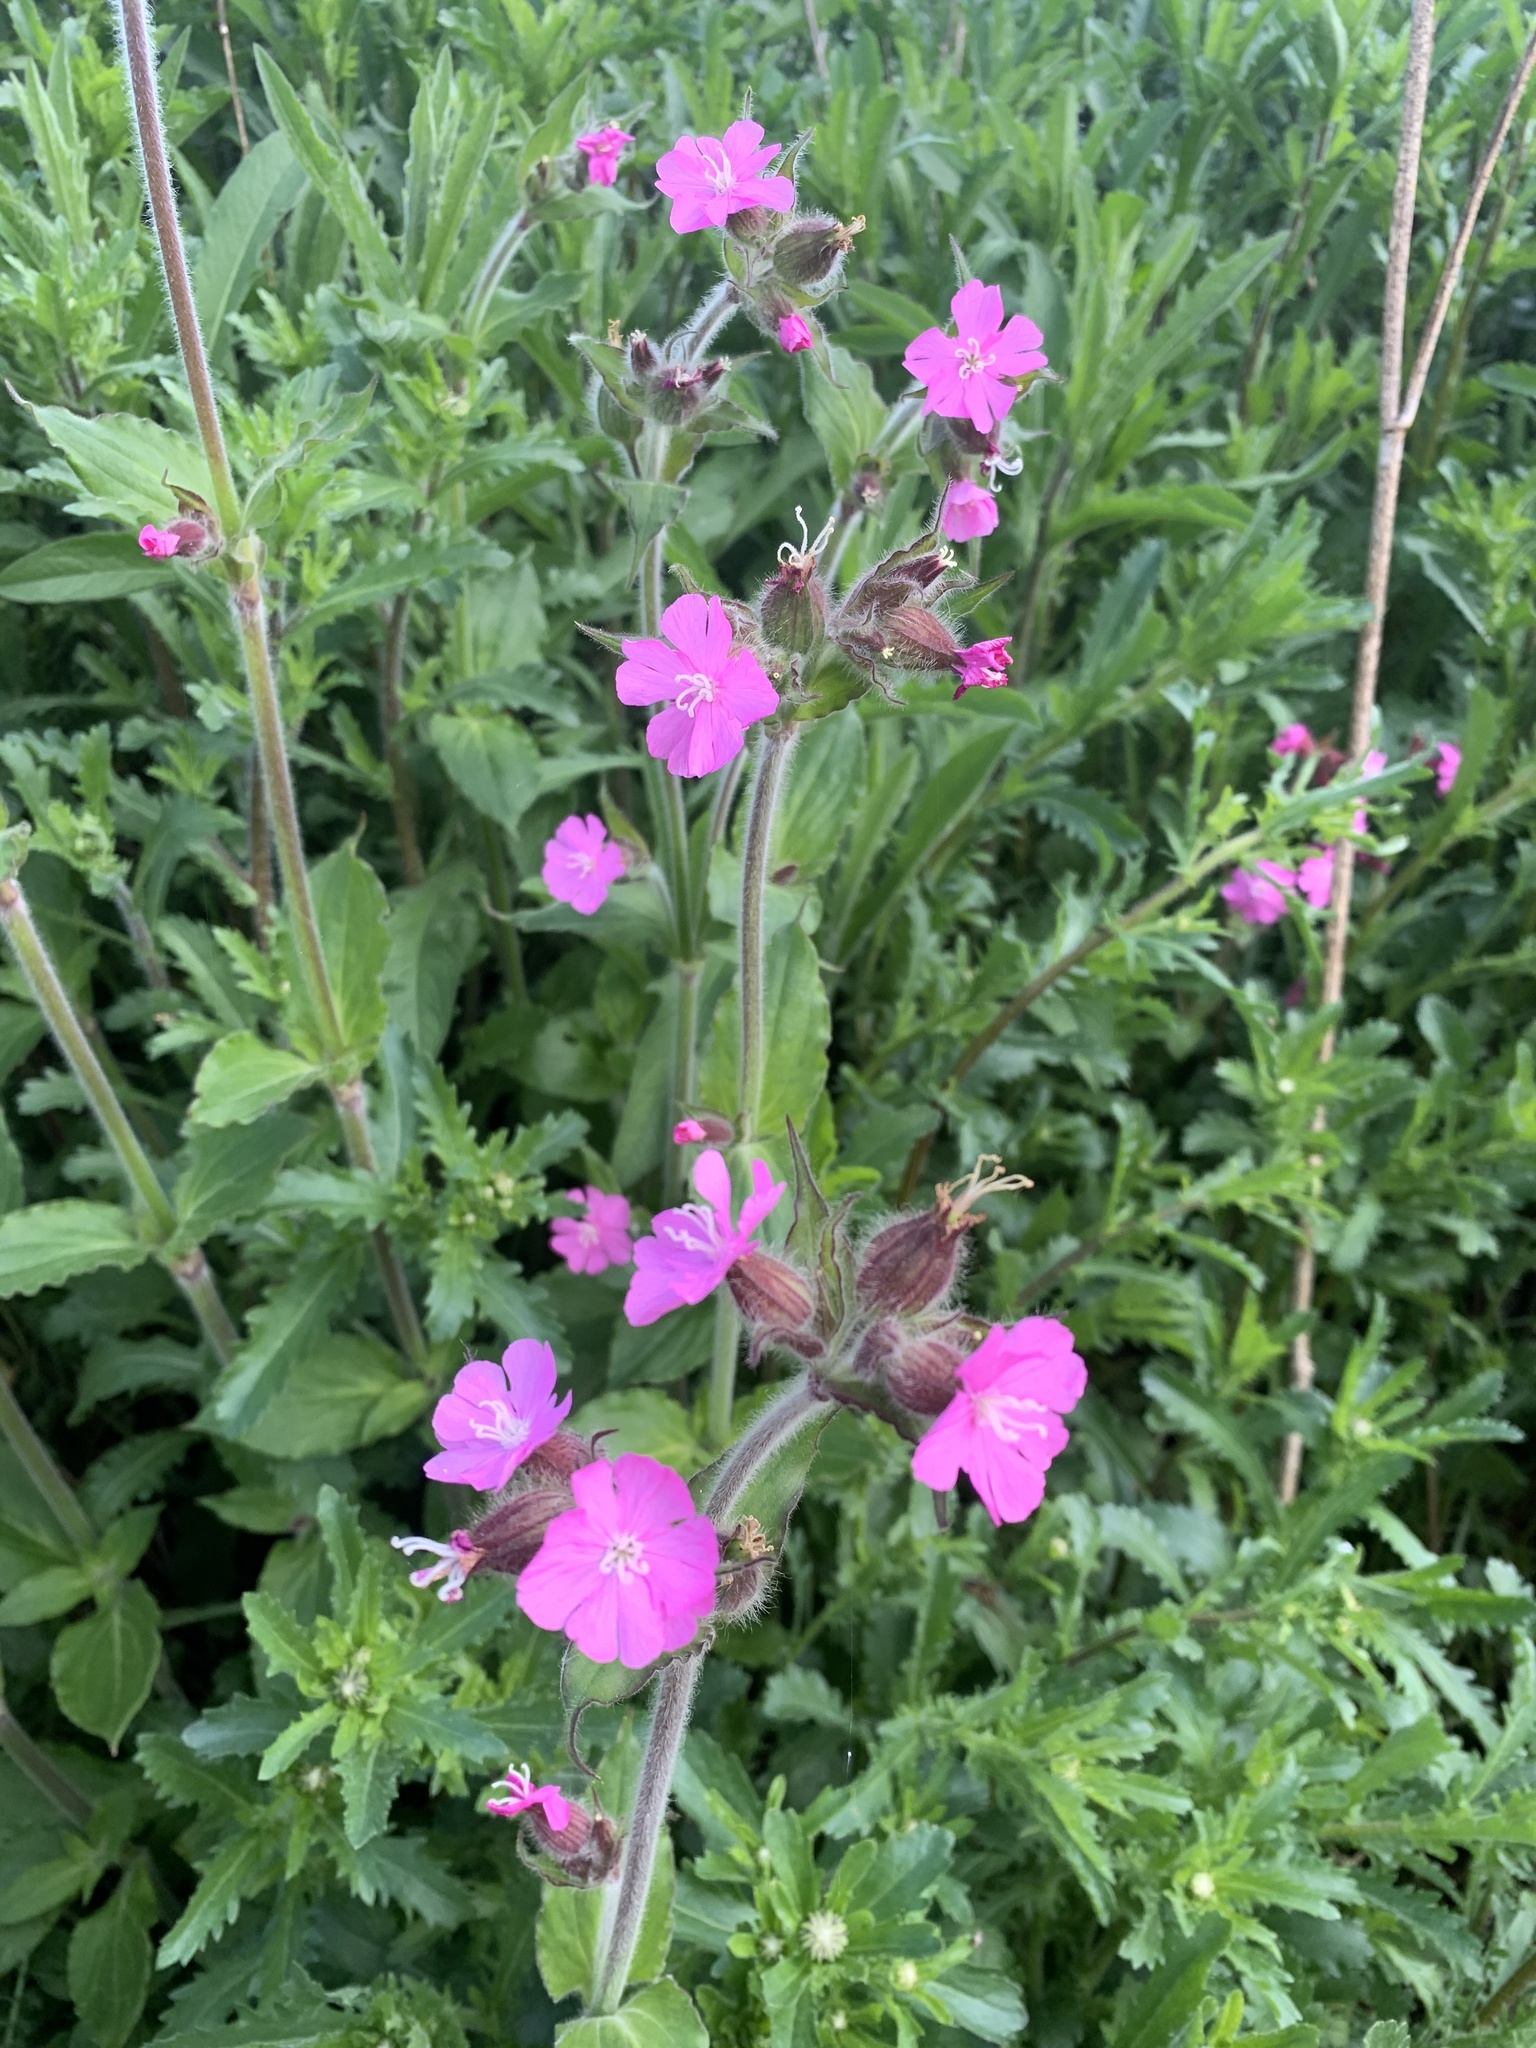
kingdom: Plantae
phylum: Tracheophyta
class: Magnoliopsida
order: Caryophyllales
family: Caryophyllaceae
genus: Silene
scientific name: Silene dioica
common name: Red campion
